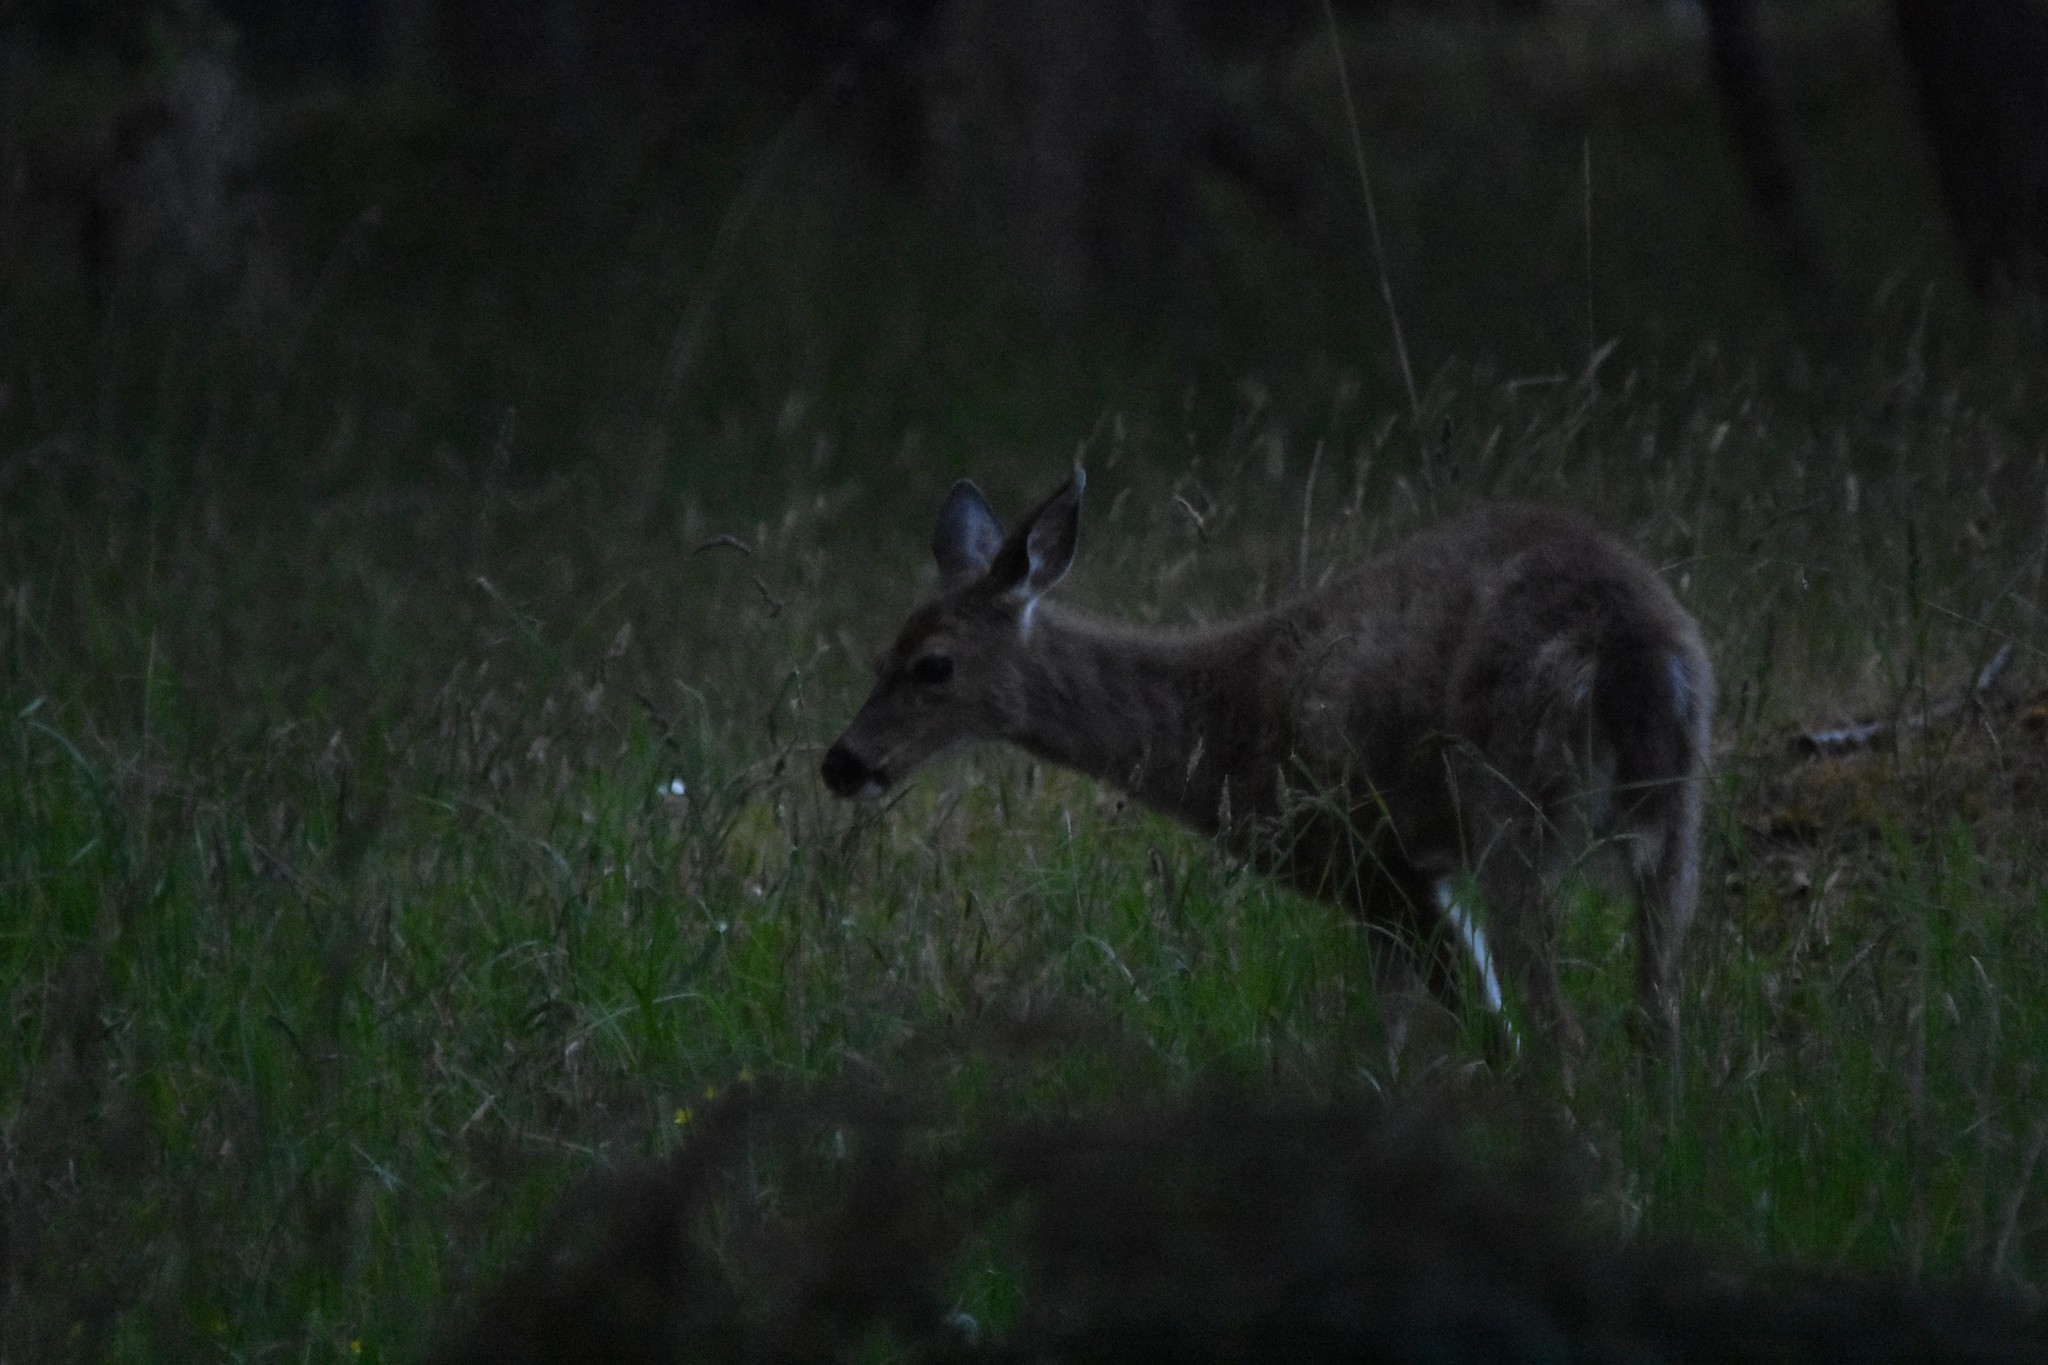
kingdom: Animalia
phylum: Chordata
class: Mammalia
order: Artiodactyla
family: Cervidae
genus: Odocoileus
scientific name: Odocoileus hemionus
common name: Mule deer
